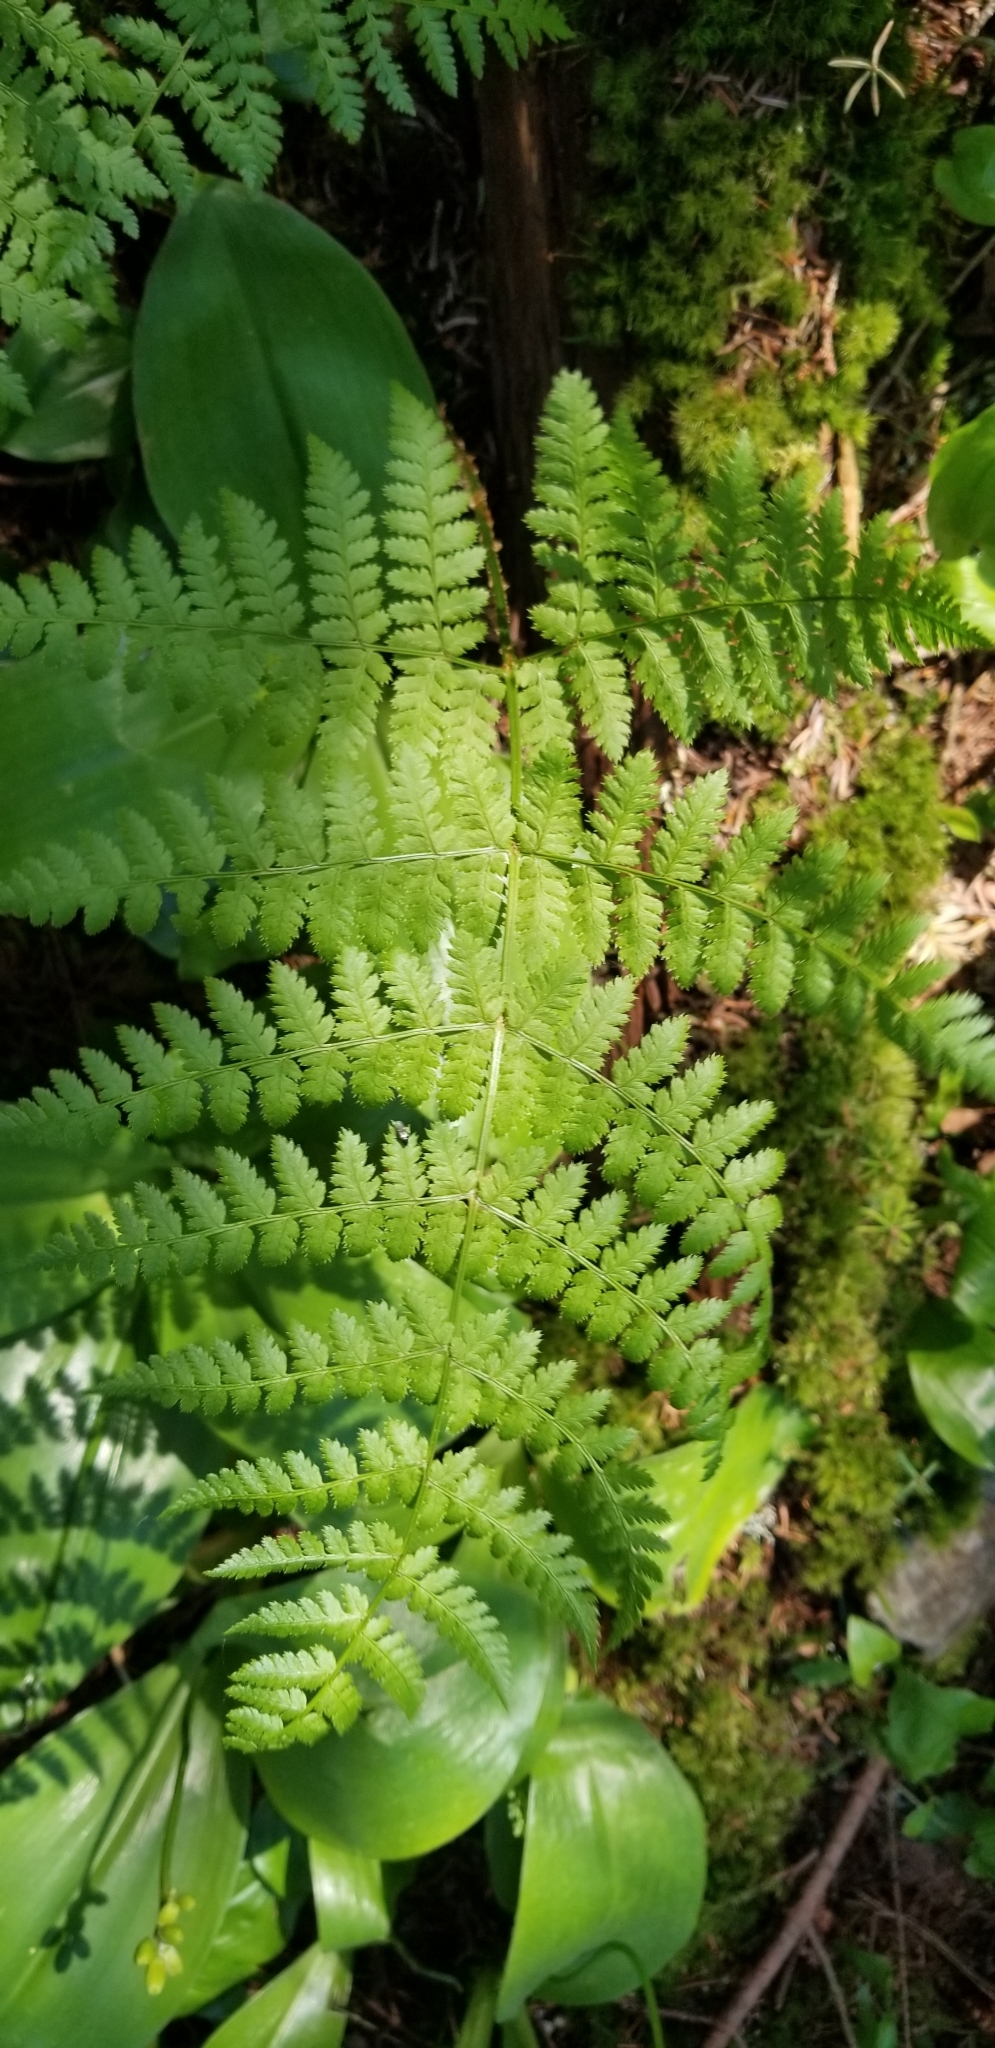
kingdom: Plantae
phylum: Tracheophyta
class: Polypodiopsida
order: Polypodiales
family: Dryopteridaceae
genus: Dryopteris
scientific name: Dryopteris campyloptera
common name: Mountain wood fern
